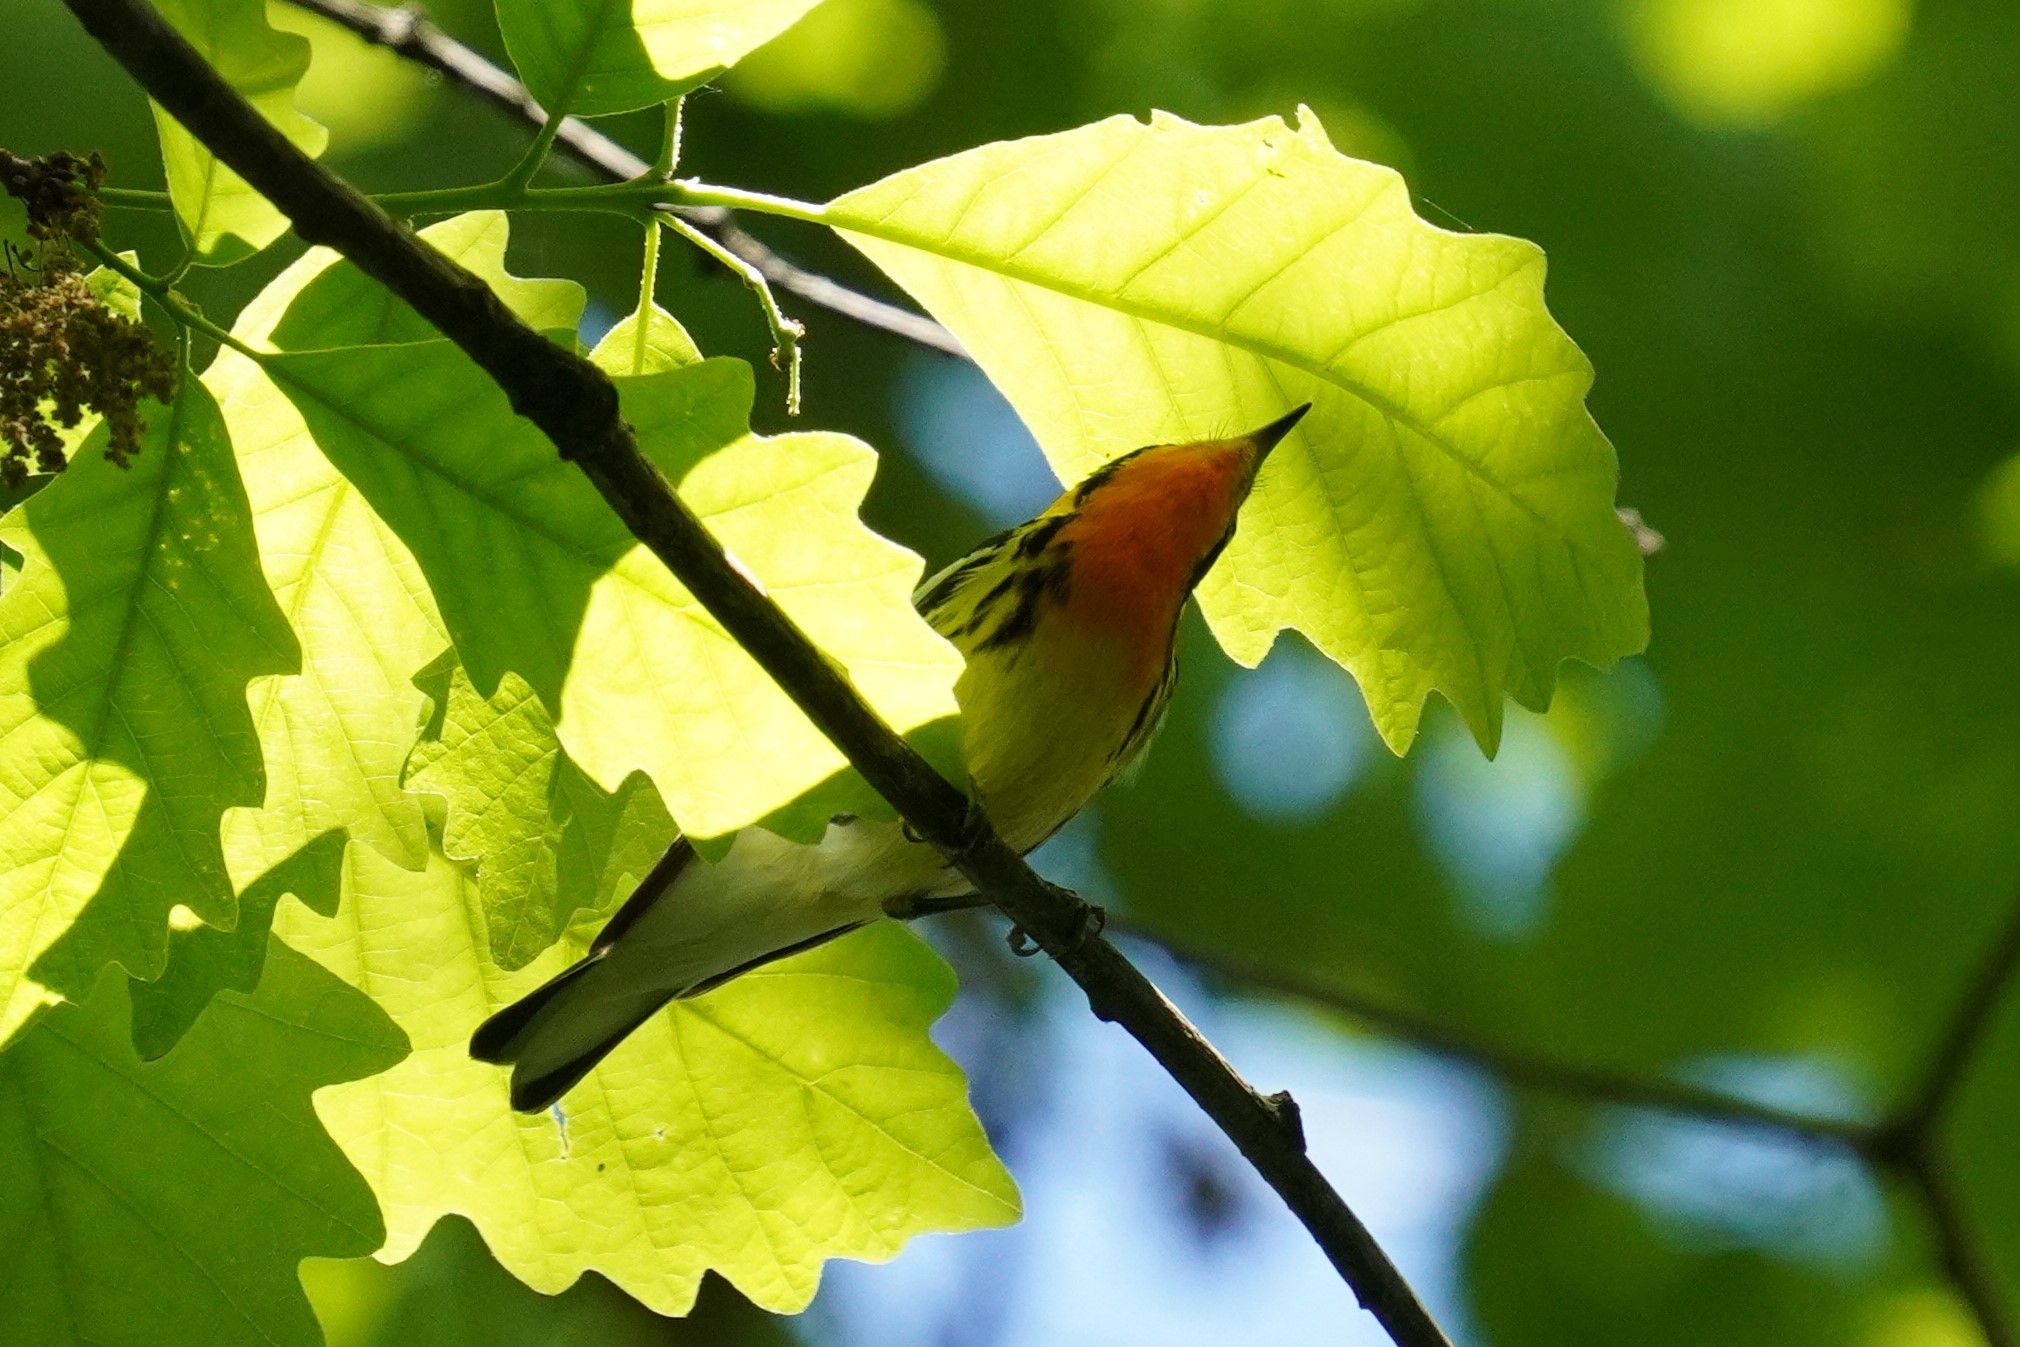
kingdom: Animalia
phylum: Chordata
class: Aves
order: Passeriformes
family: Parulidae
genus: Setophaga
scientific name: Setophaga fusca
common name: Blackburnian warbler
